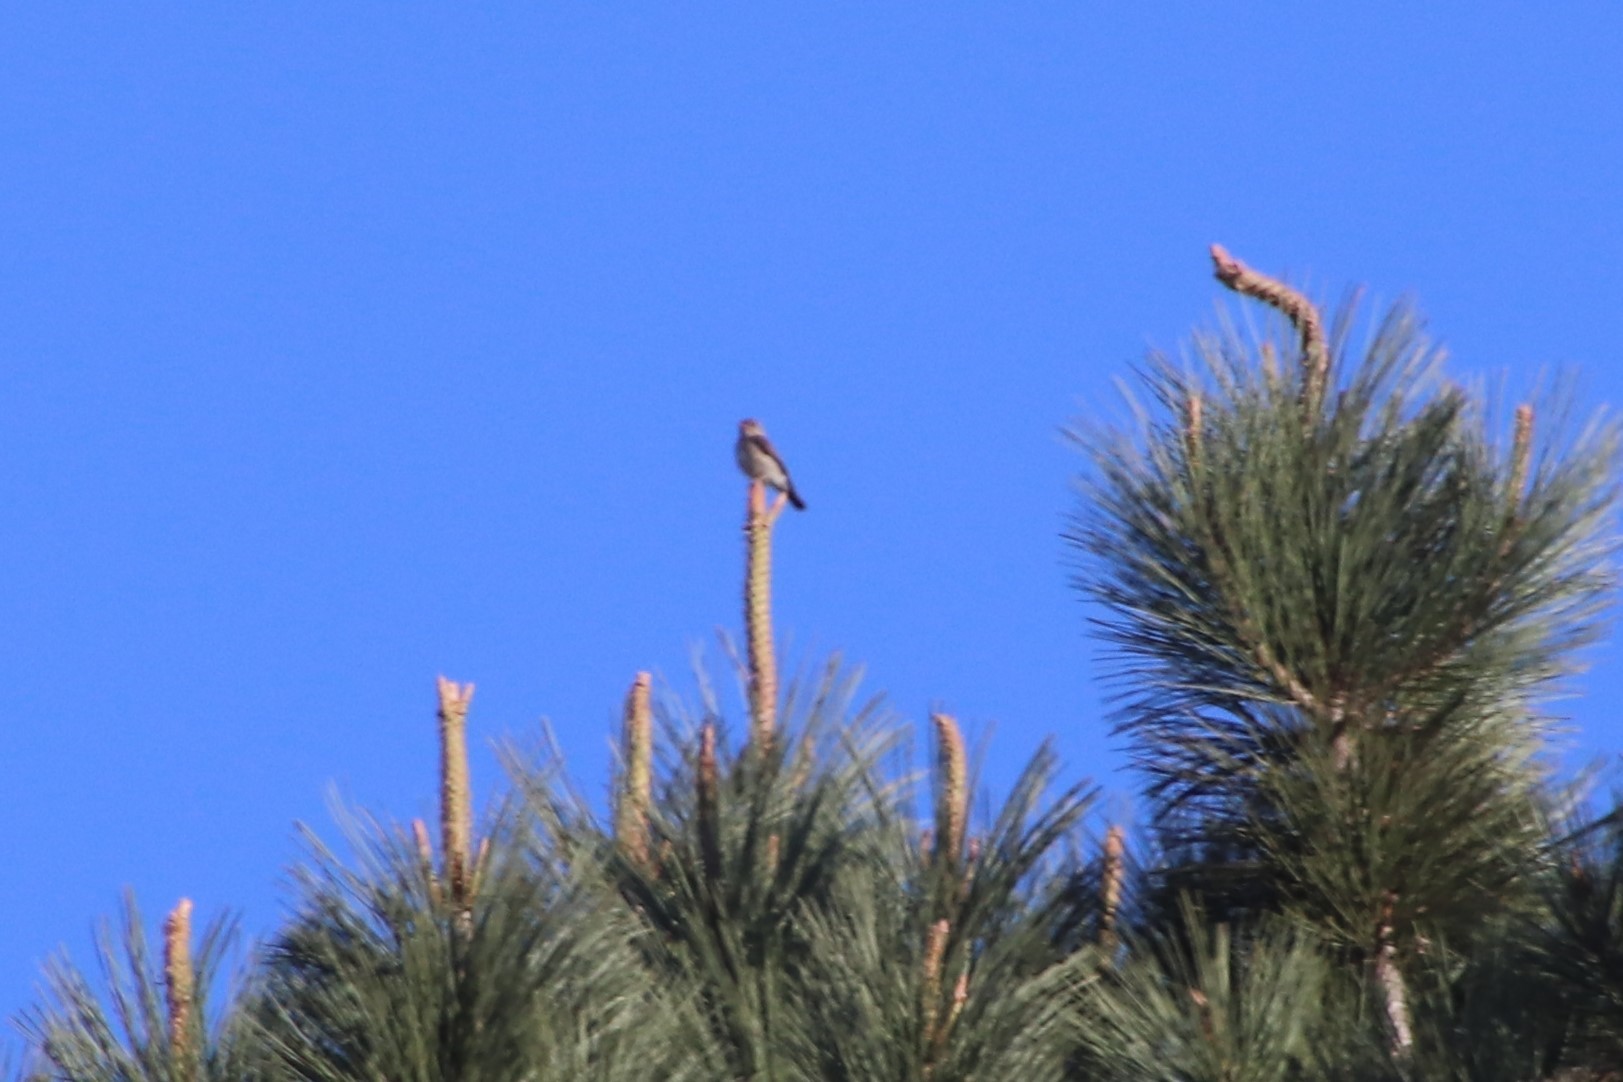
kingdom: Animalia
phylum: Chordata
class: Aves
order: Passeriformes
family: Tyrannidae
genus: Contopus
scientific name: Contopus cooperi
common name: Olive-sided flycatcher
